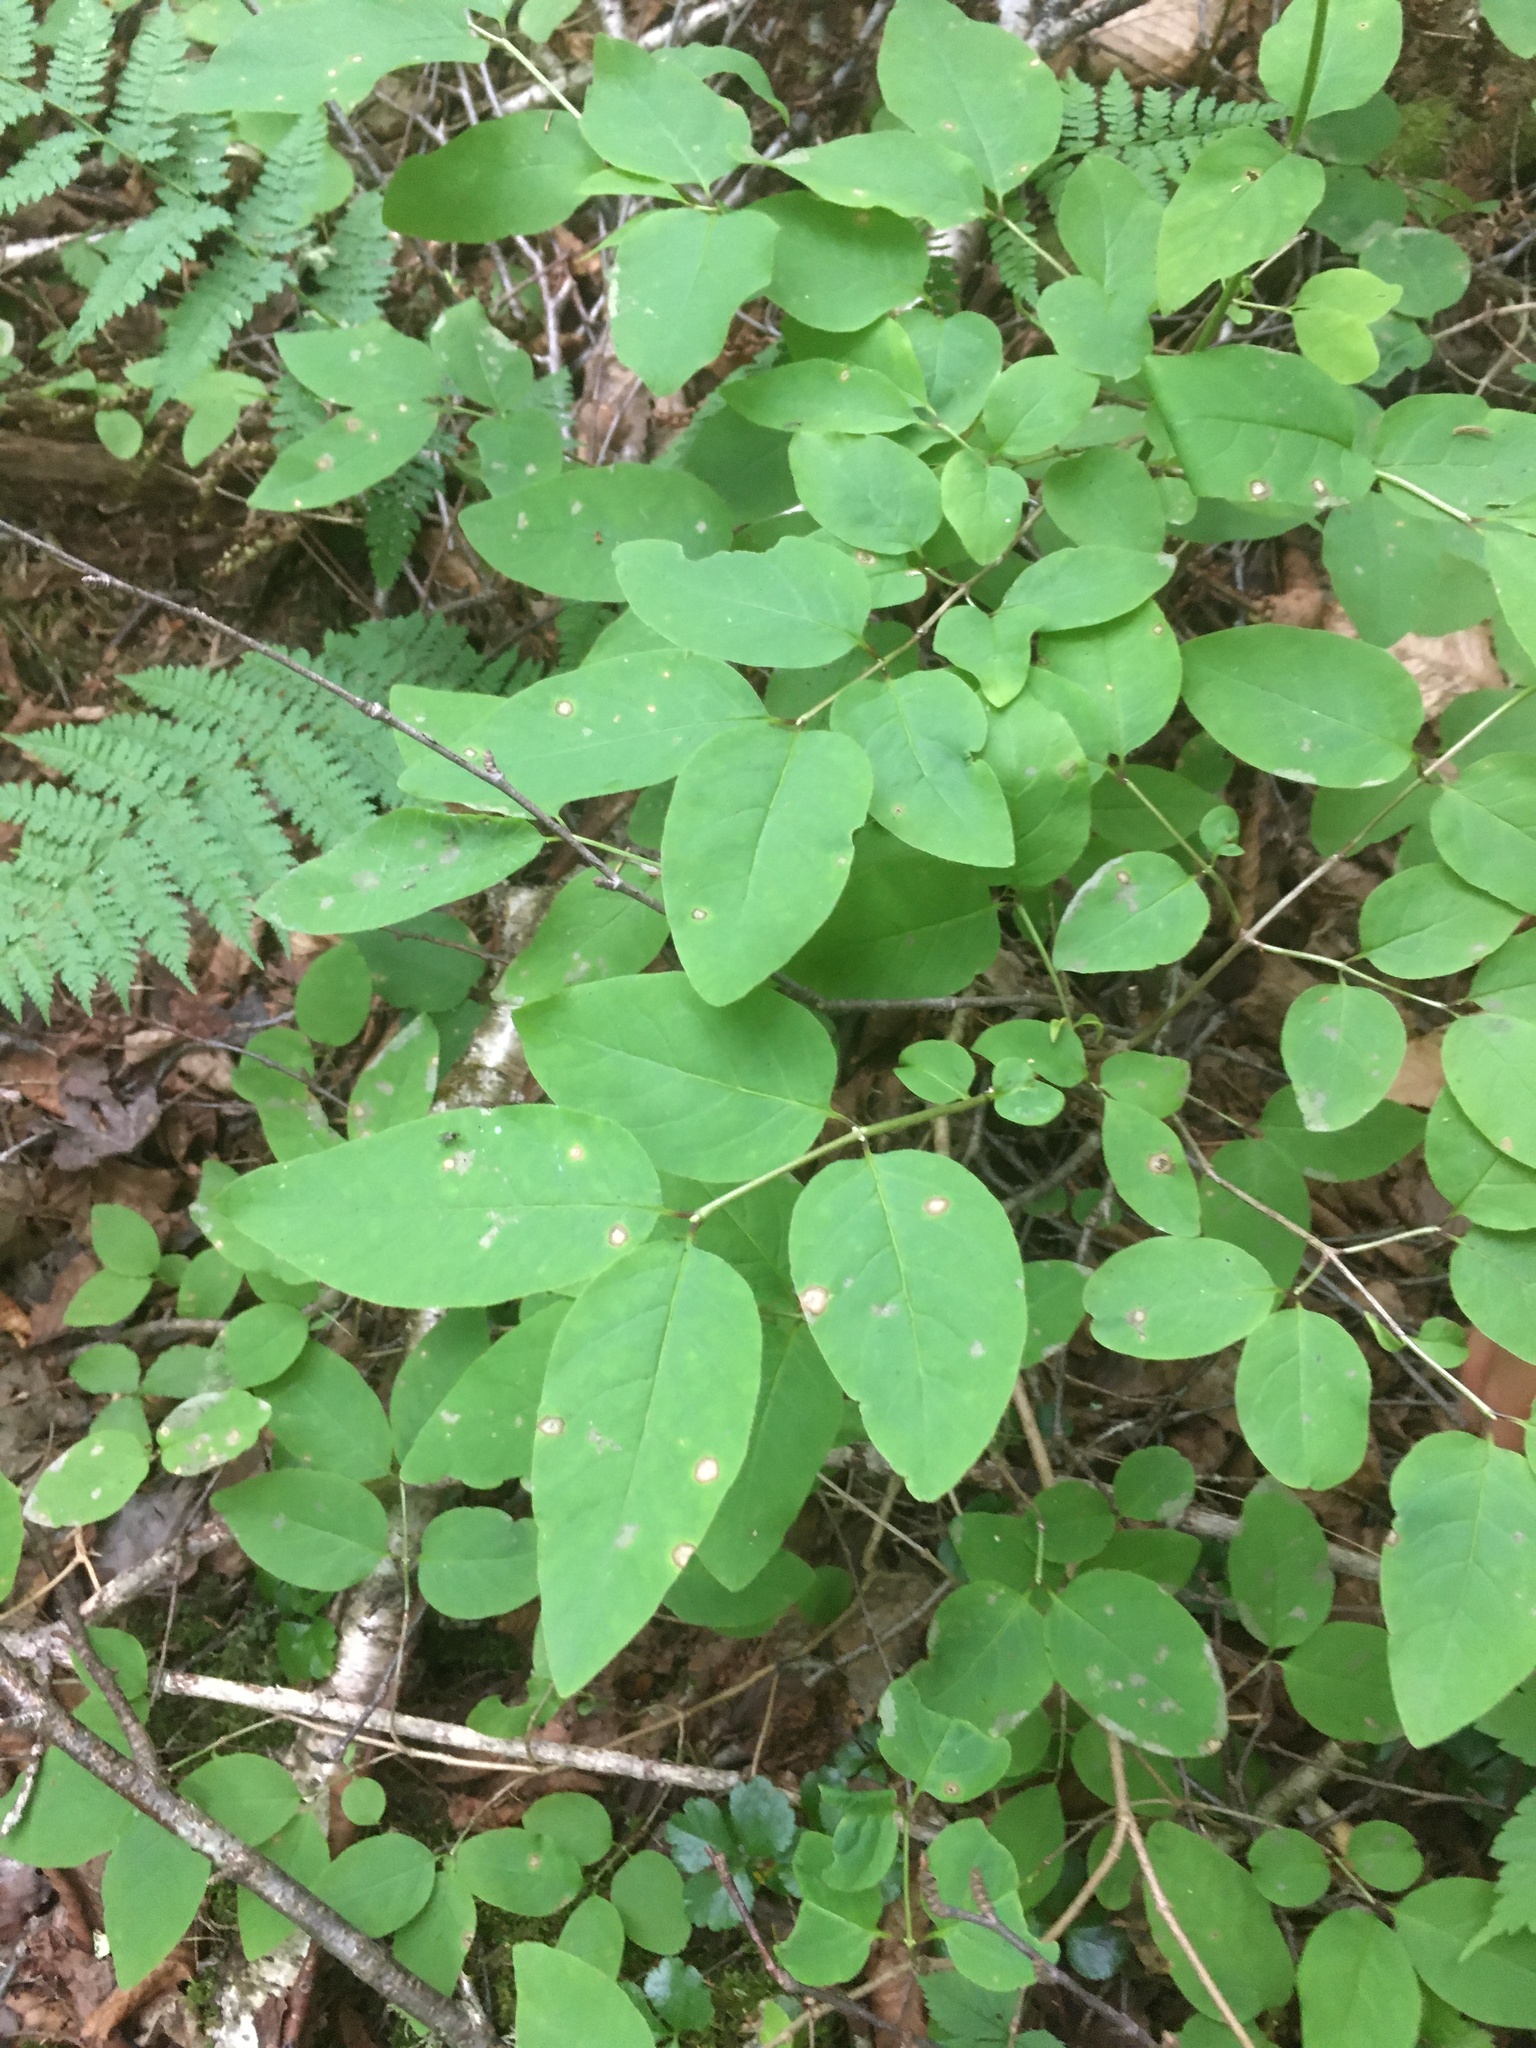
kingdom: Plantae
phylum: Tracheophyta
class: Magnoliopsida
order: Dipsacales
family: Caprifoliaceae
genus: Lonicera
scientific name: Lonicera canadensis
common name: American fly-honeysuckle
